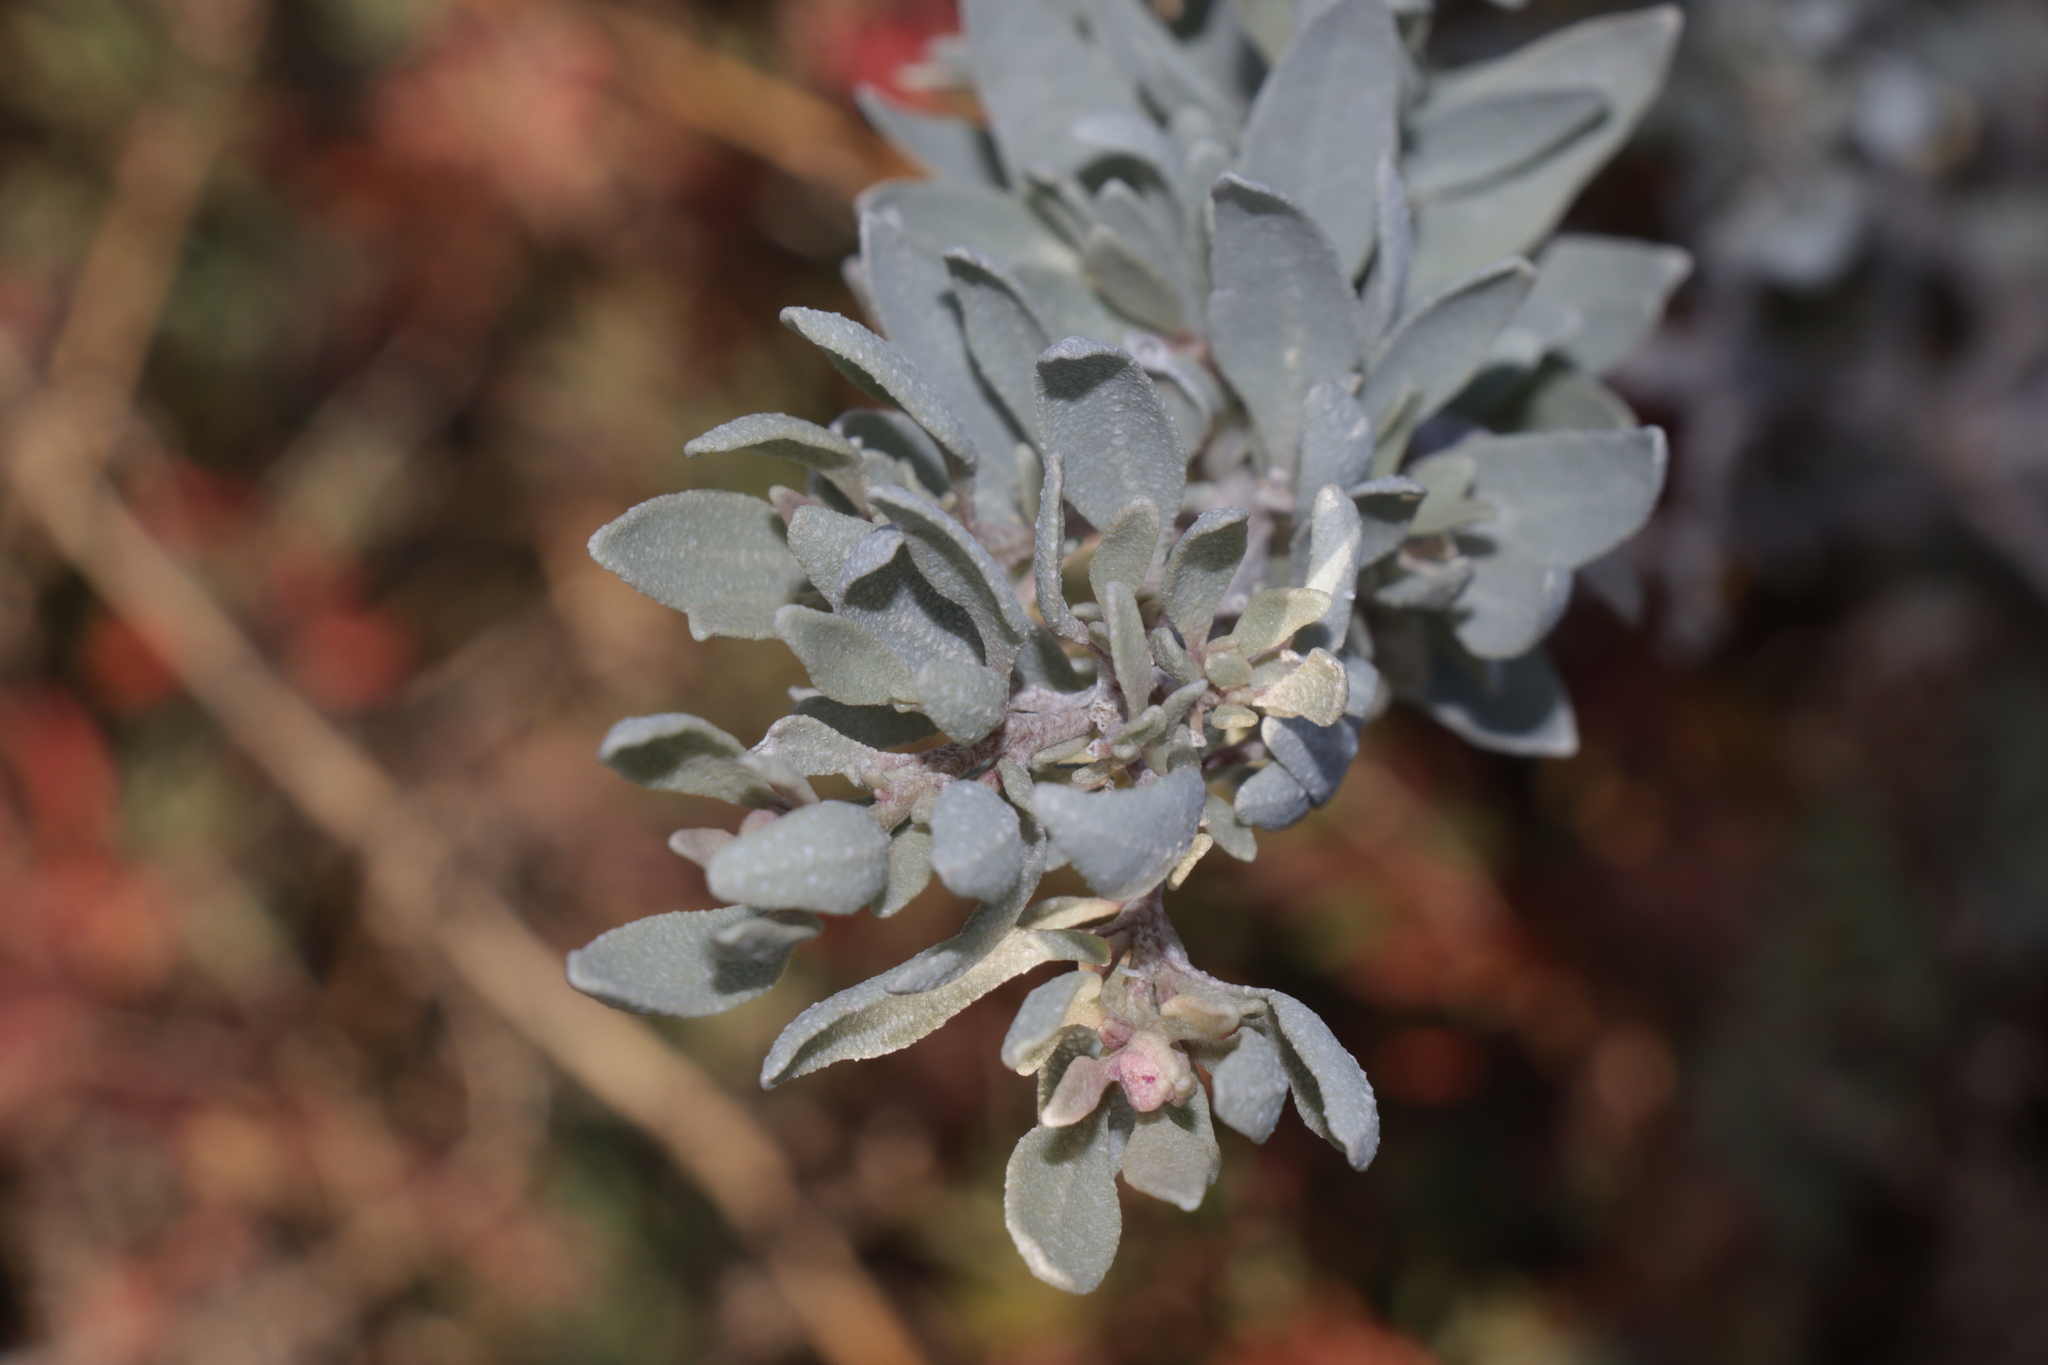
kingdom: Plantae
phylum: Tracheophyta
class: Magnoliopsida
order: Caryophyllales
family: Amaranthaceae
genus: Atriplex
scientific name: Atriplex cinerea
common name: Grey saltbush
